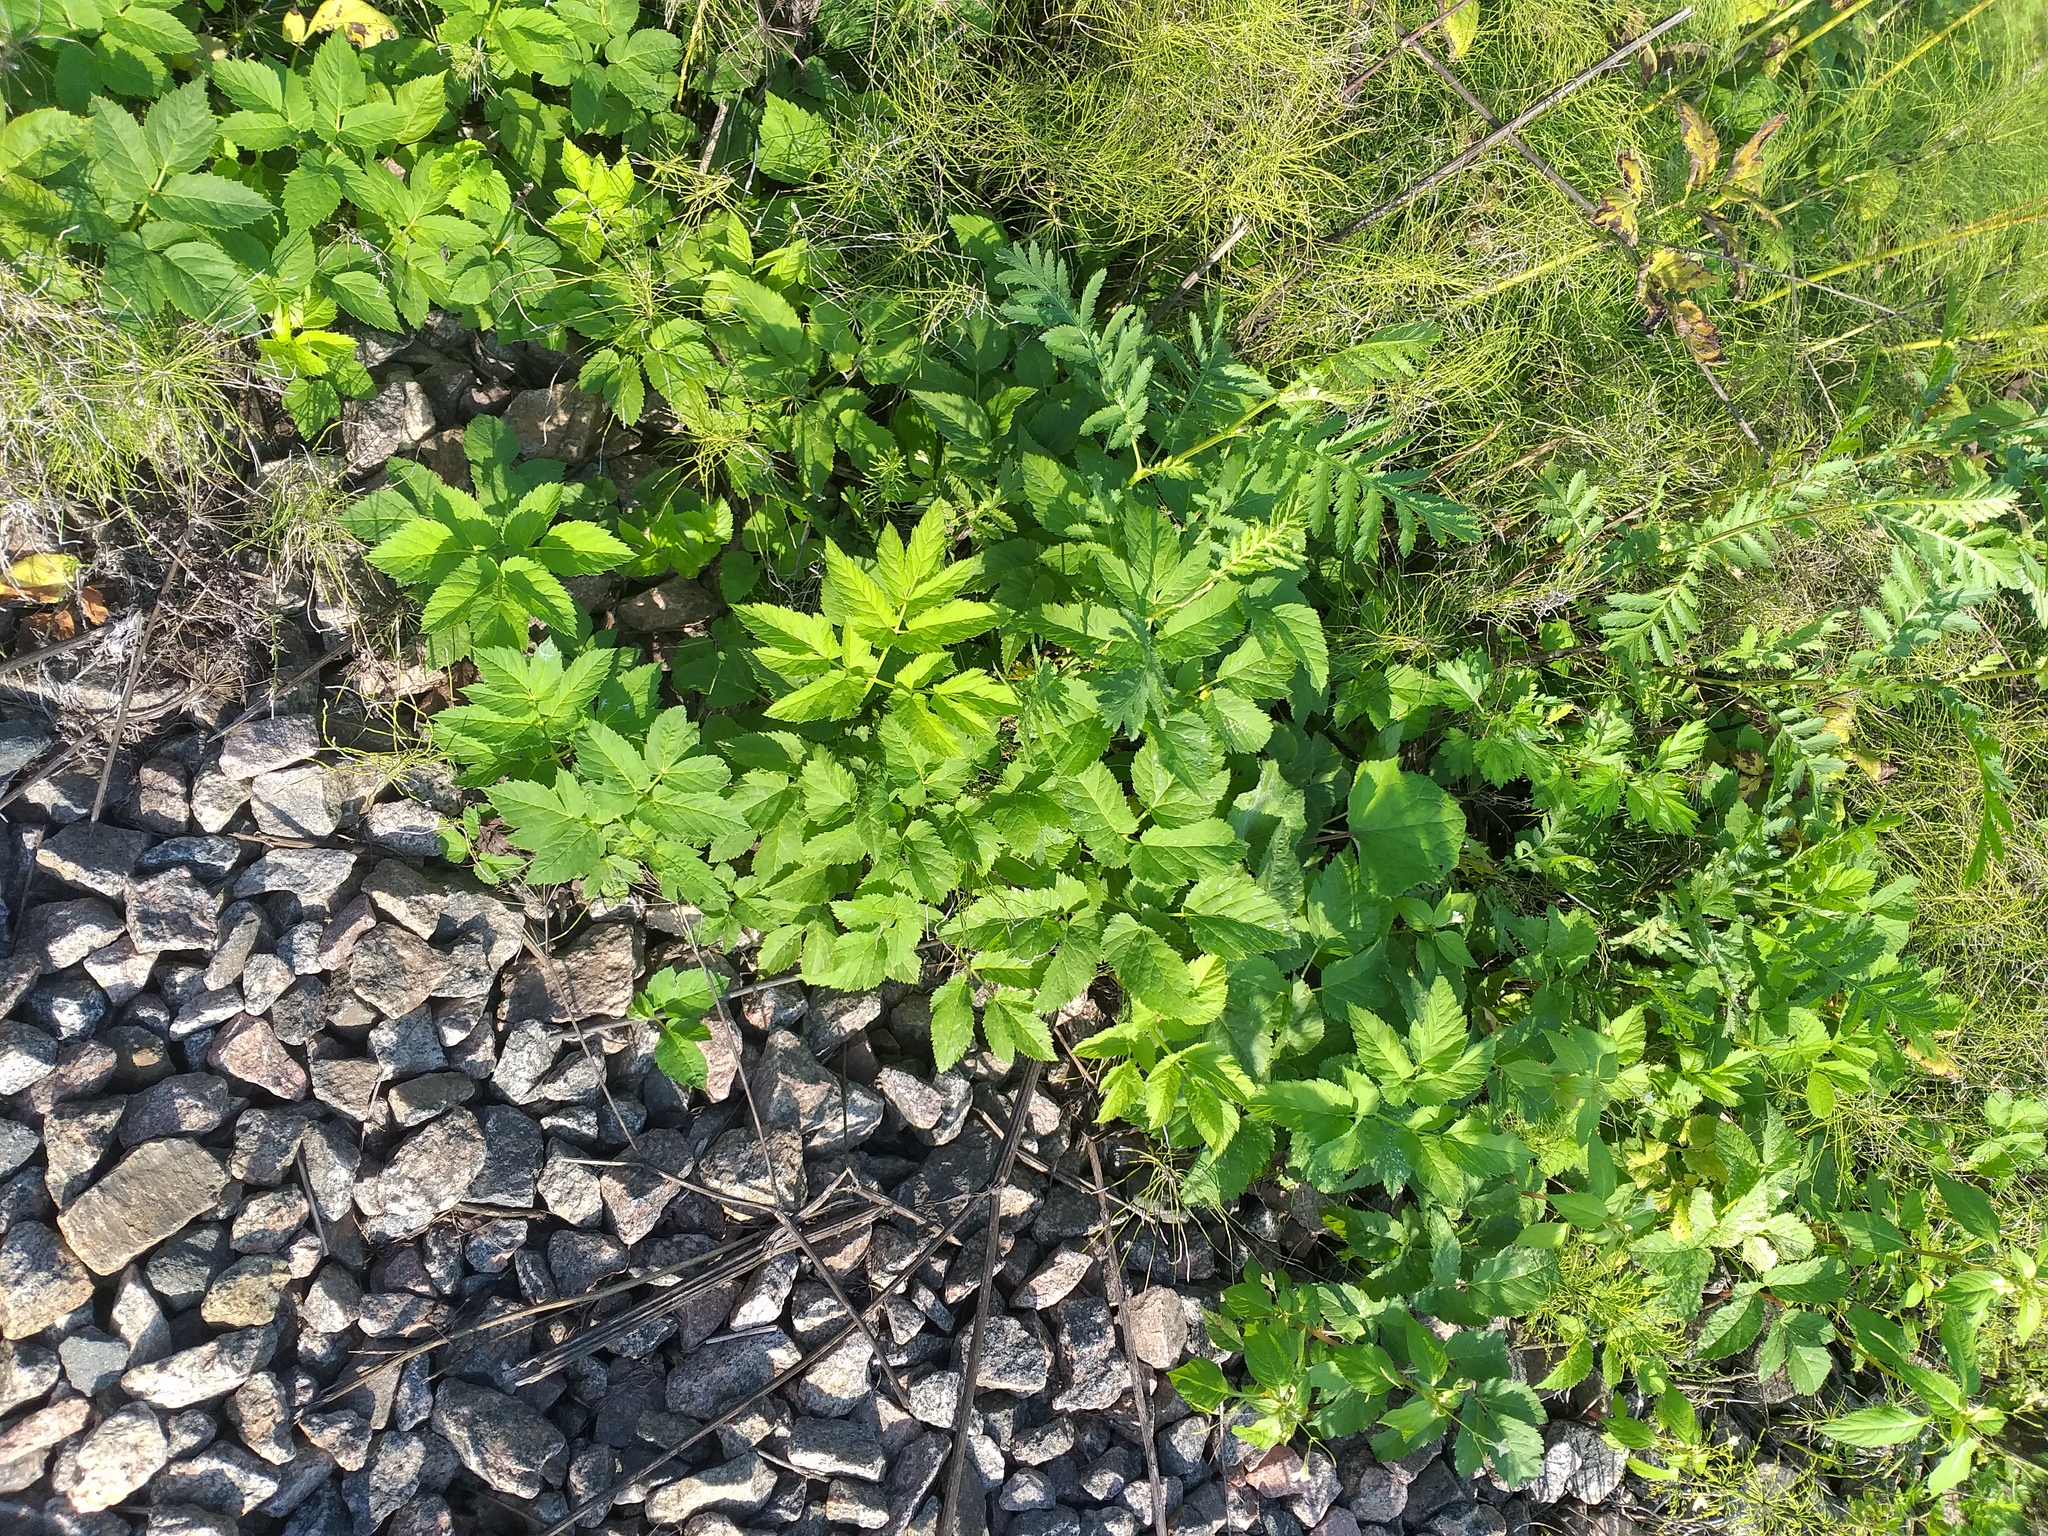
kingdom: Plantae
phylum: Tracheophyta
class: Magnoliopsida
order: Apiales
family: Apiaceae
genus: Aegopodium
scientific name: Aegopodium podagraria
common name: Ground-elder
